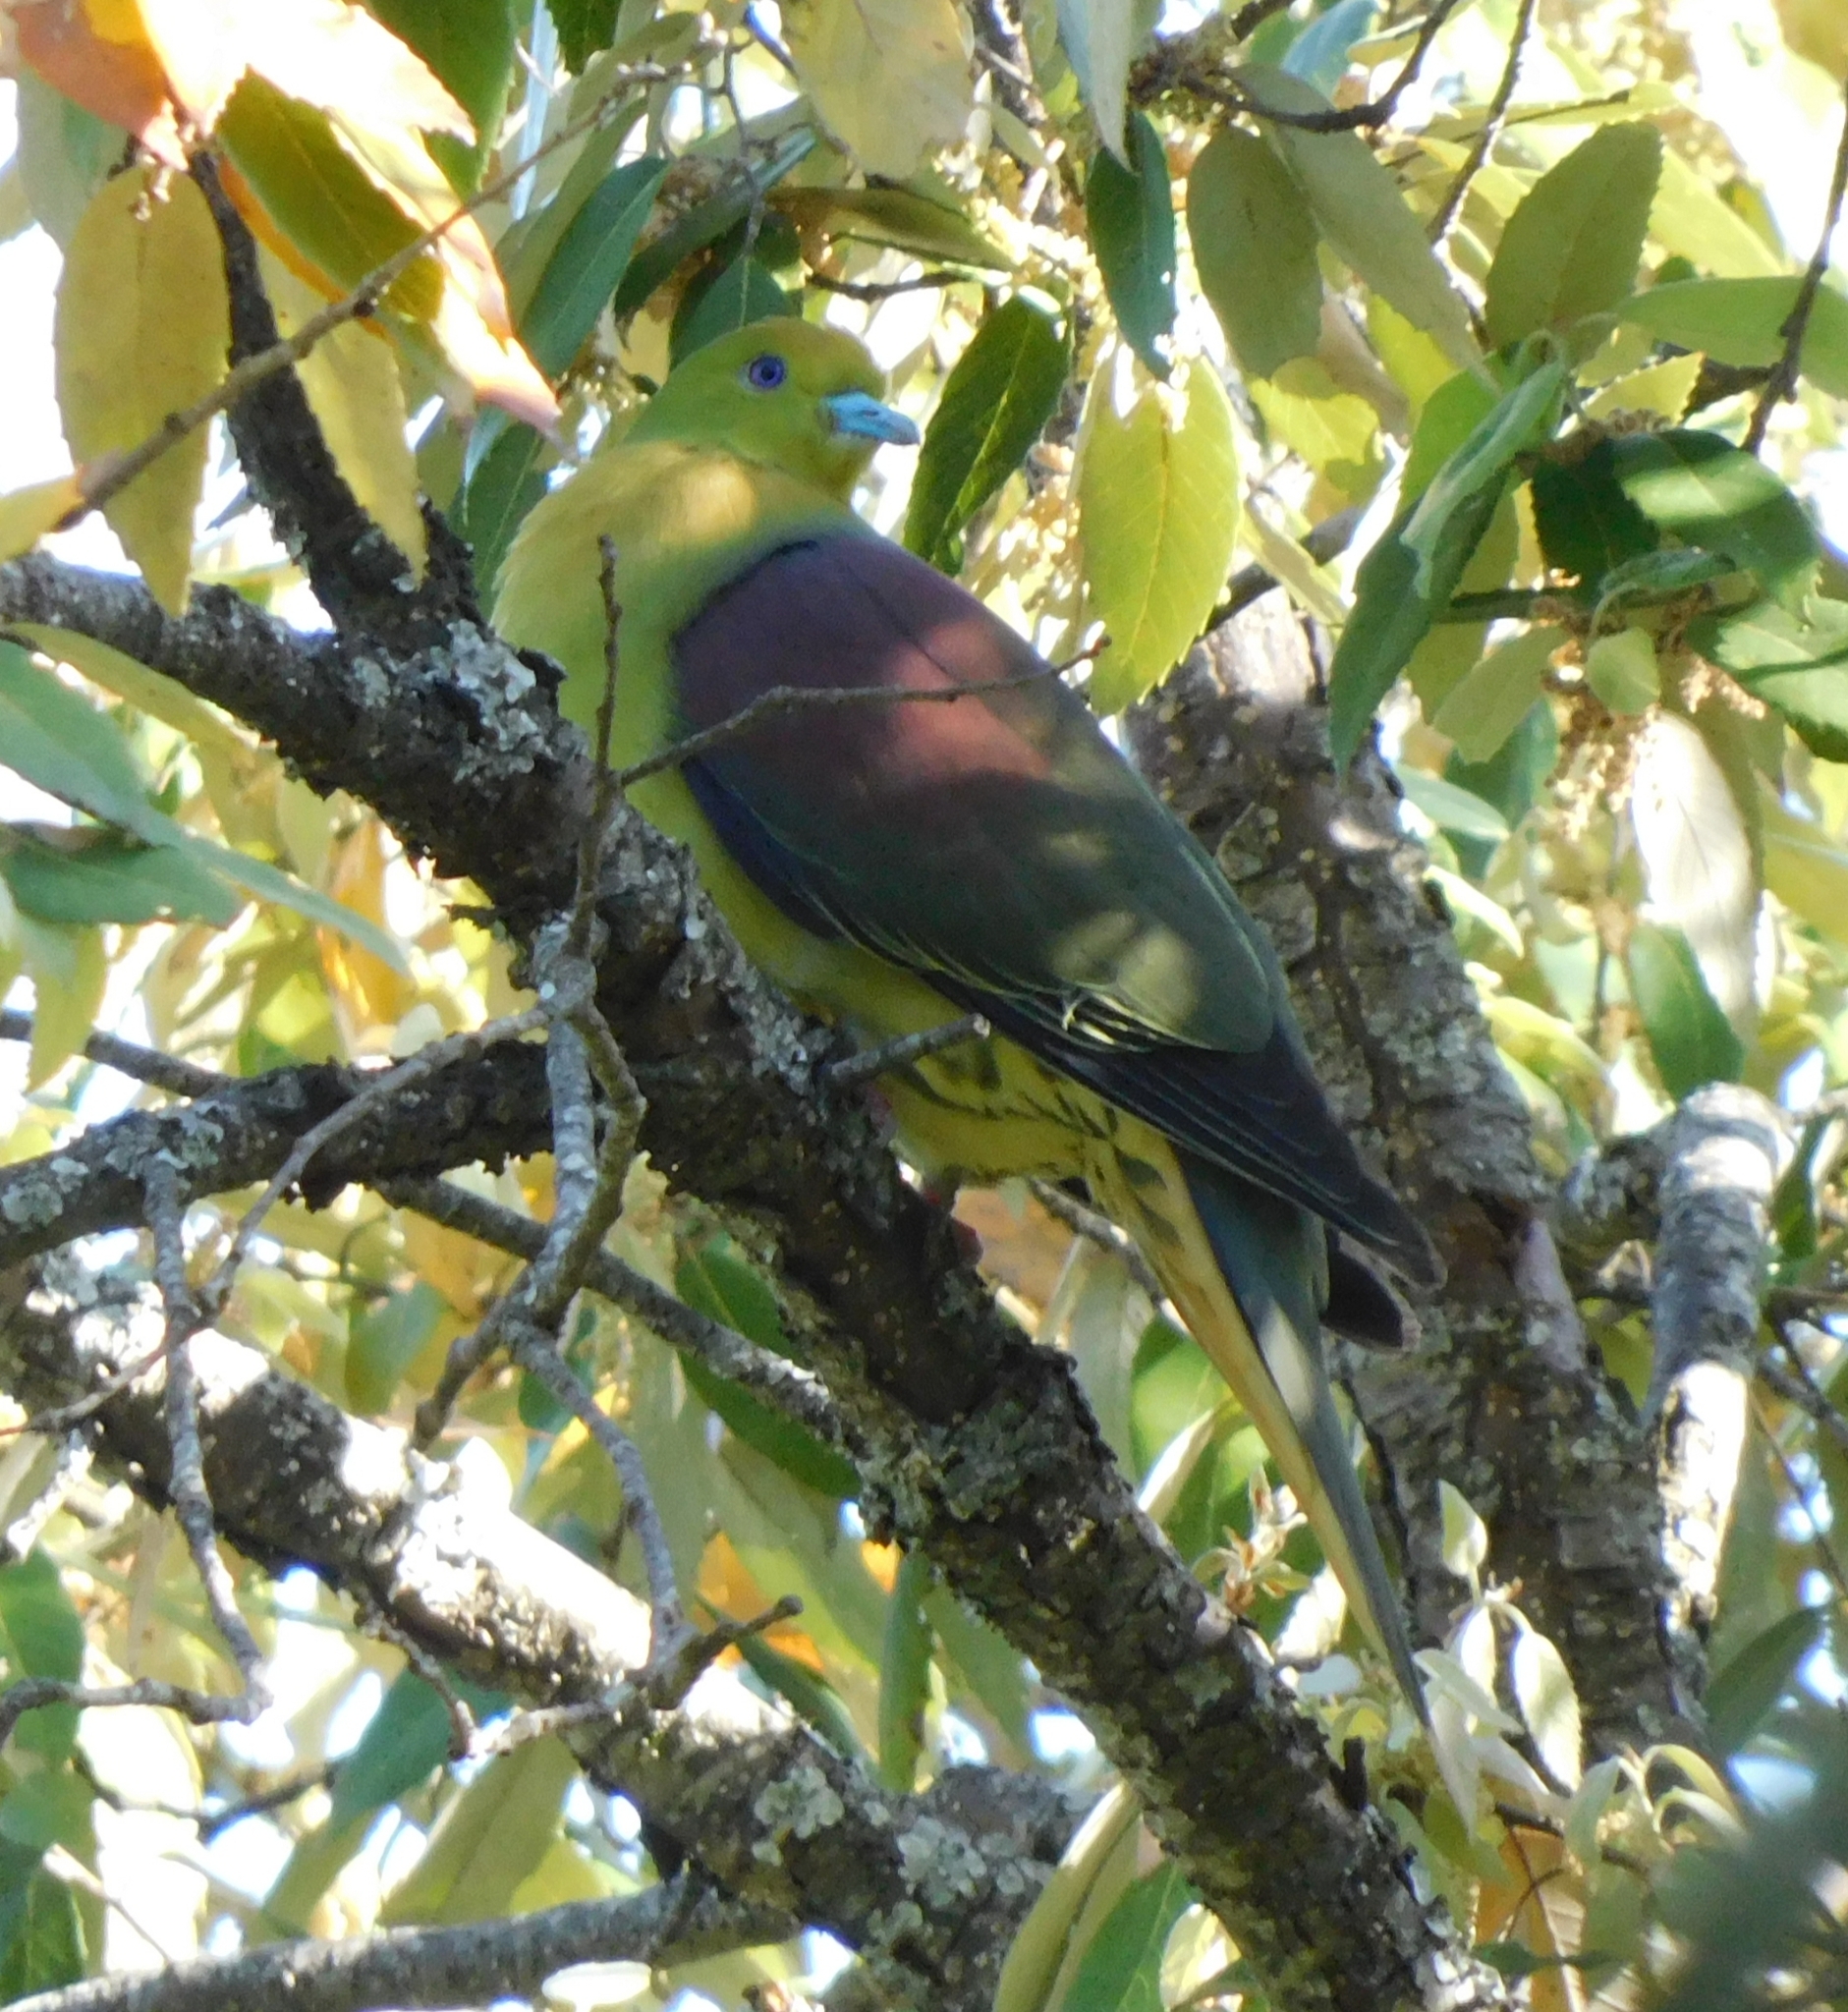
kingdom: Animalia
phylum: Chordata
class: Aves
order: Columbiformes
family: Columbidae
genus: Treron
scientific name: Treron sphenurus
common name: Wedge-tailed green pigeon
